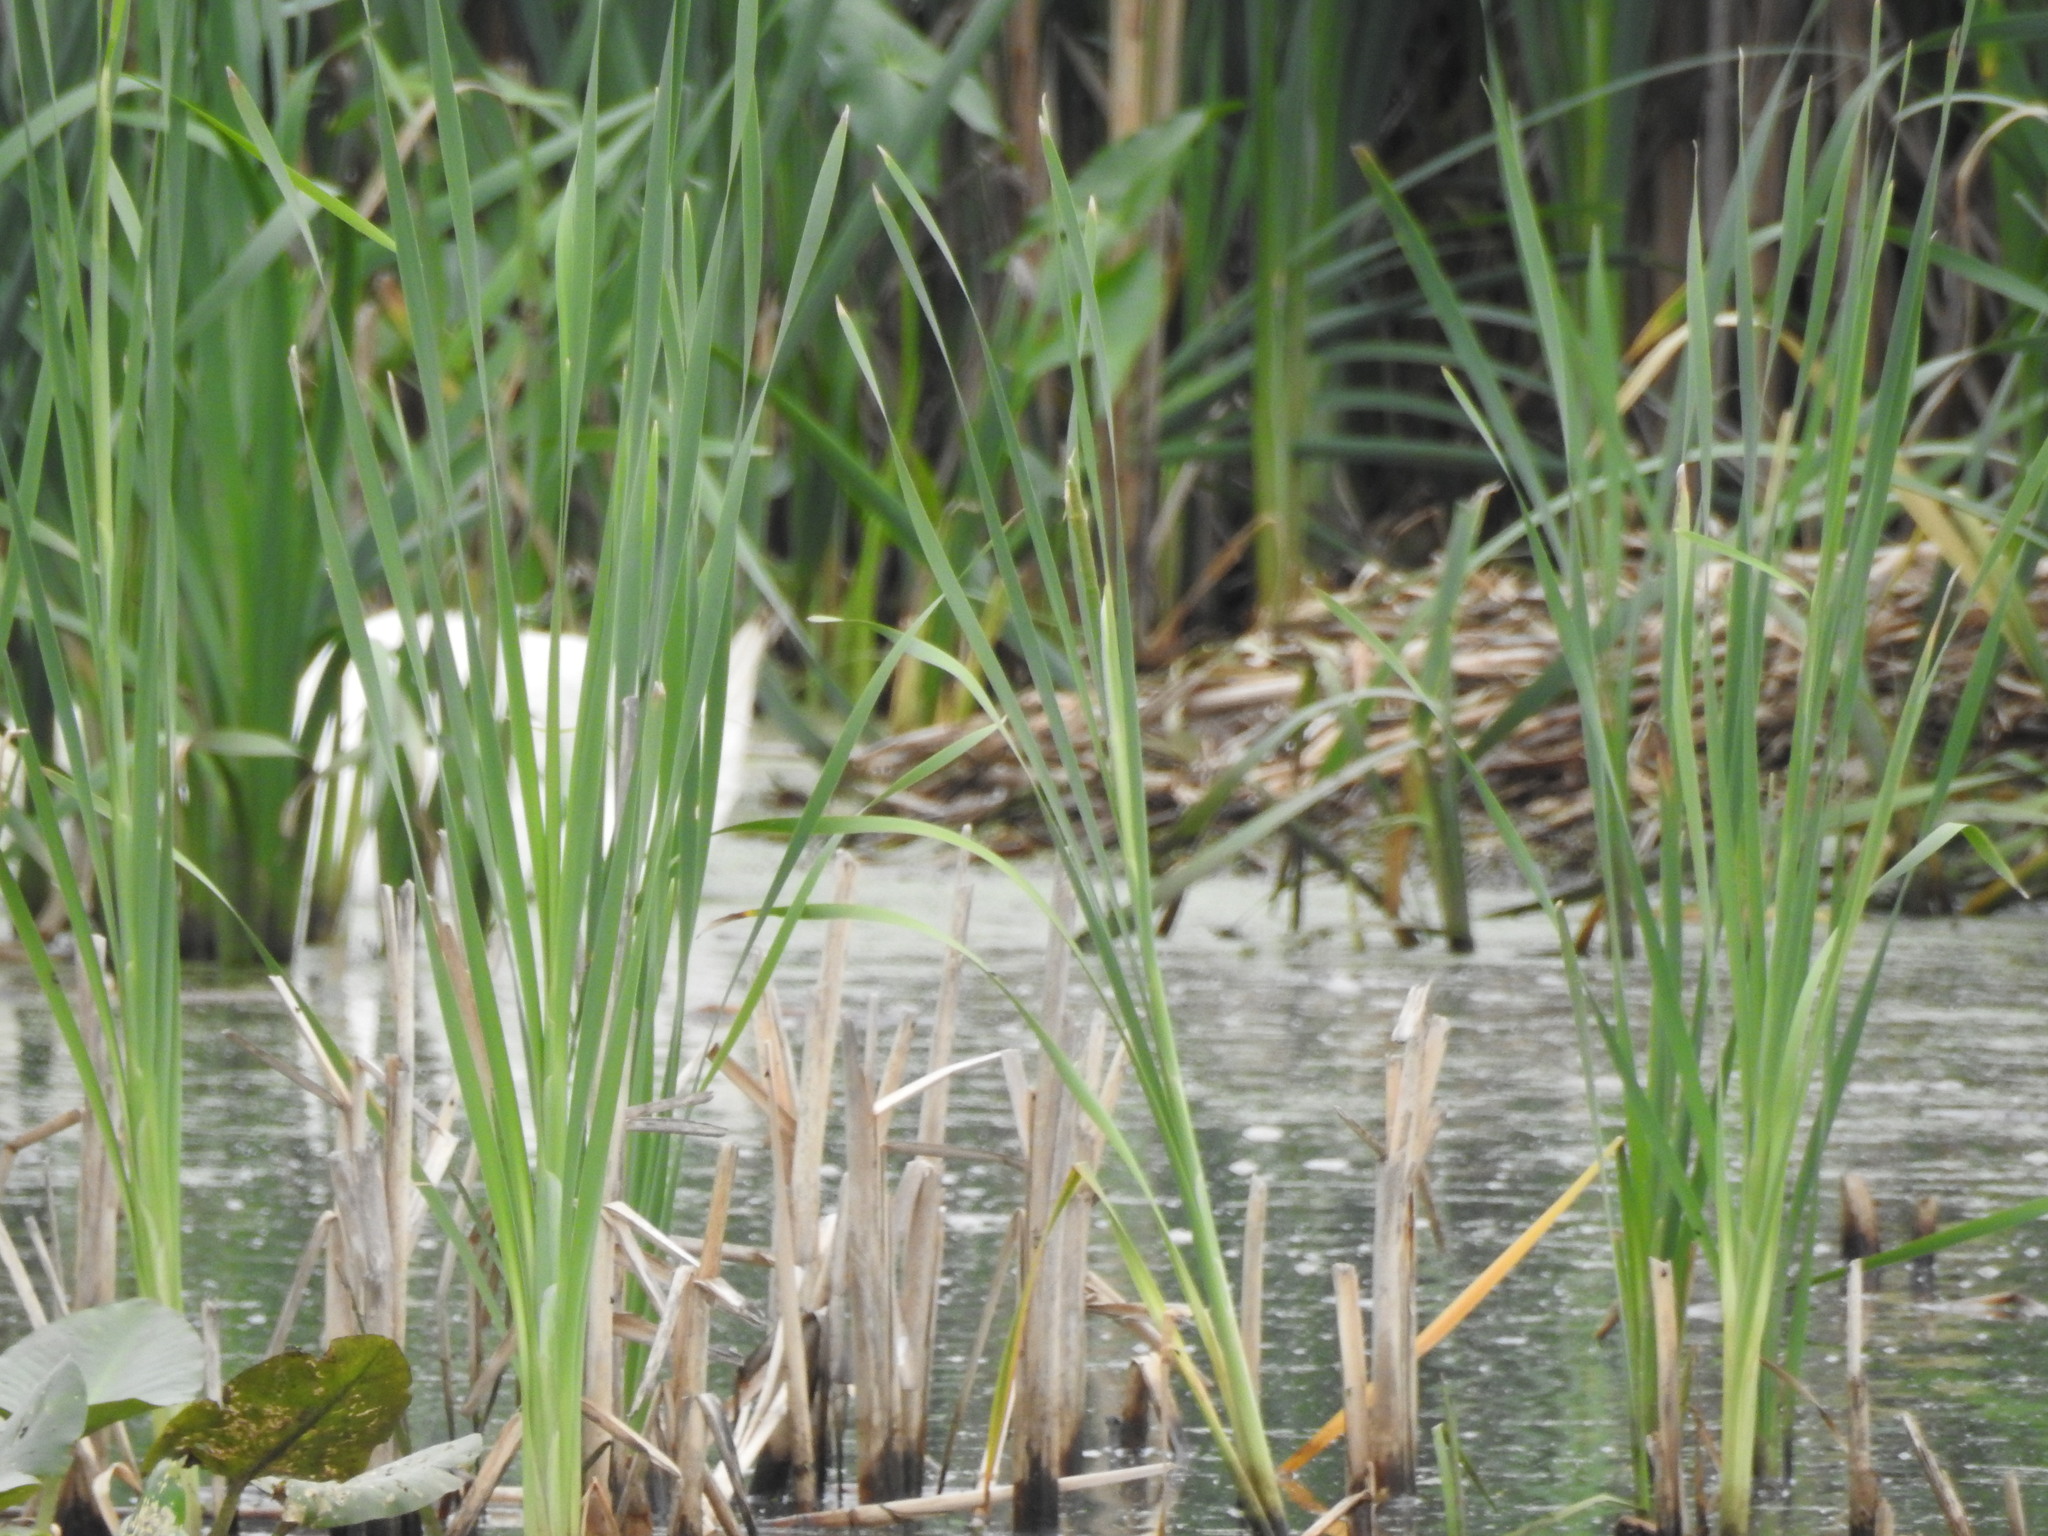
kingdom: Animalia
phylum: Chordata
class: Aves
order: Anseriformes
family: Anatidae
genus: Cygnus
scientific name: Cygnus olor
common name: Mute swan
